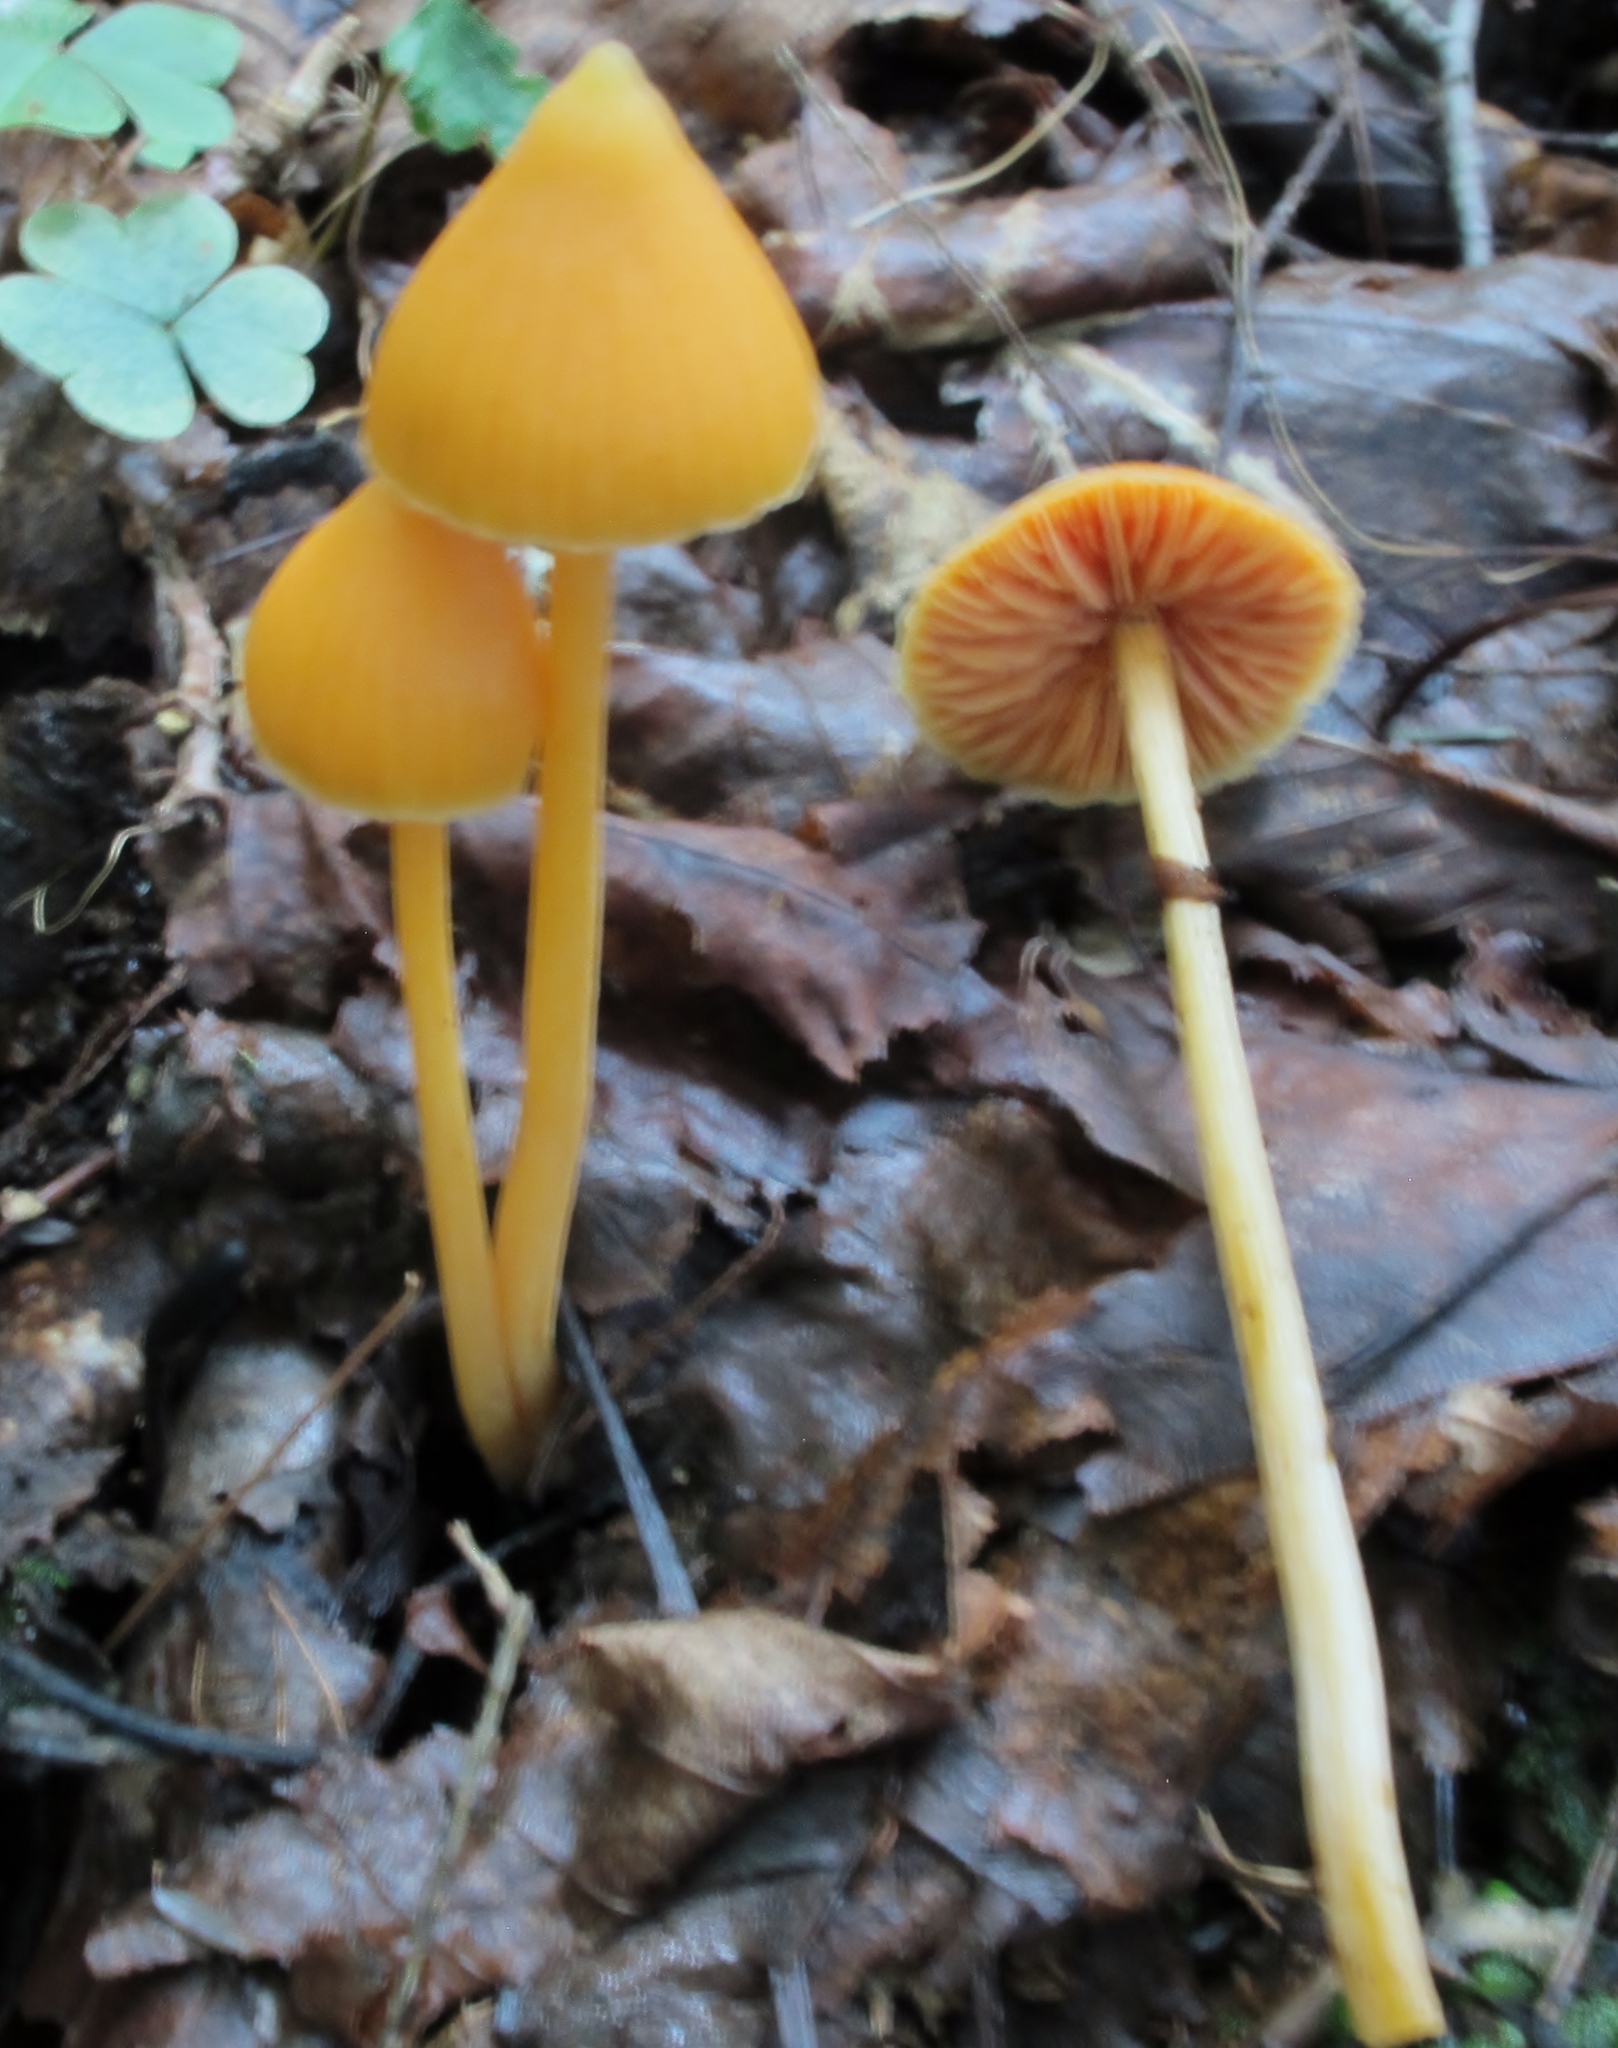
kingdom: Fungi
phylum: Basidiomycota
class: Agaricomycetes
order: Agaricales
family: Entolomataceae
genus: Entoloma
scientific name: Entoloma quadratum
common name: Salmon pinkgill
